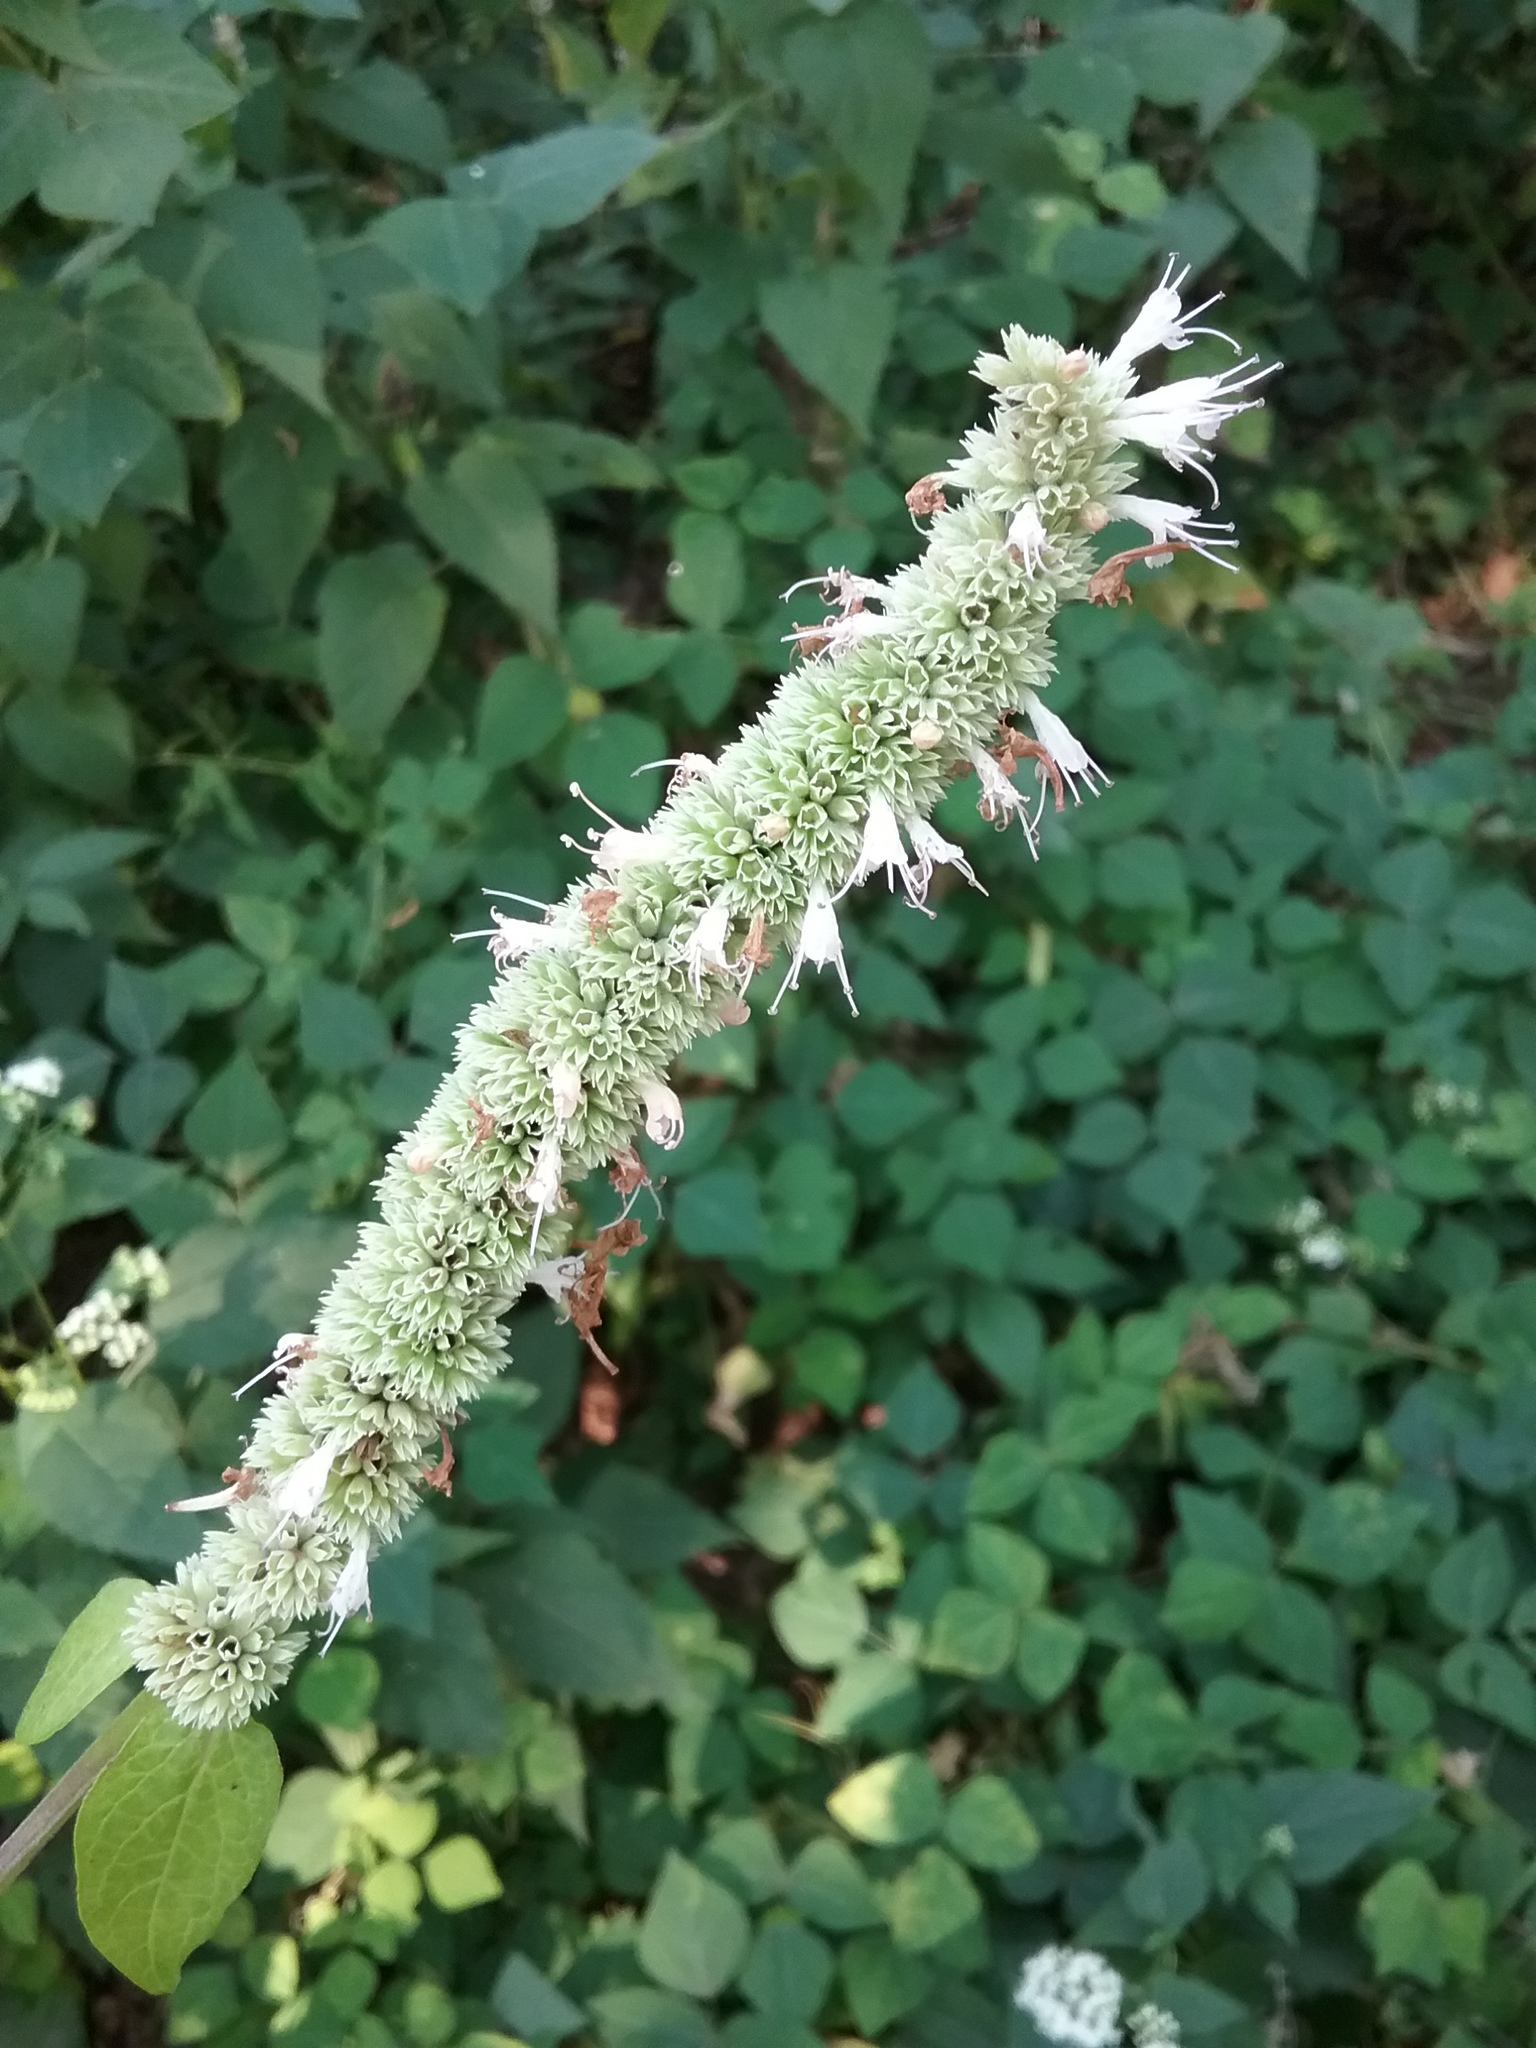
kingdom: Plantae
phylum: Tracheophyta
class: Magnoliopsida
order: Lamiales
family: Lamiaceae
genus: Agastache
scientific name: Agastache scrophulariifolia
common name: Figwort giant hyssop
